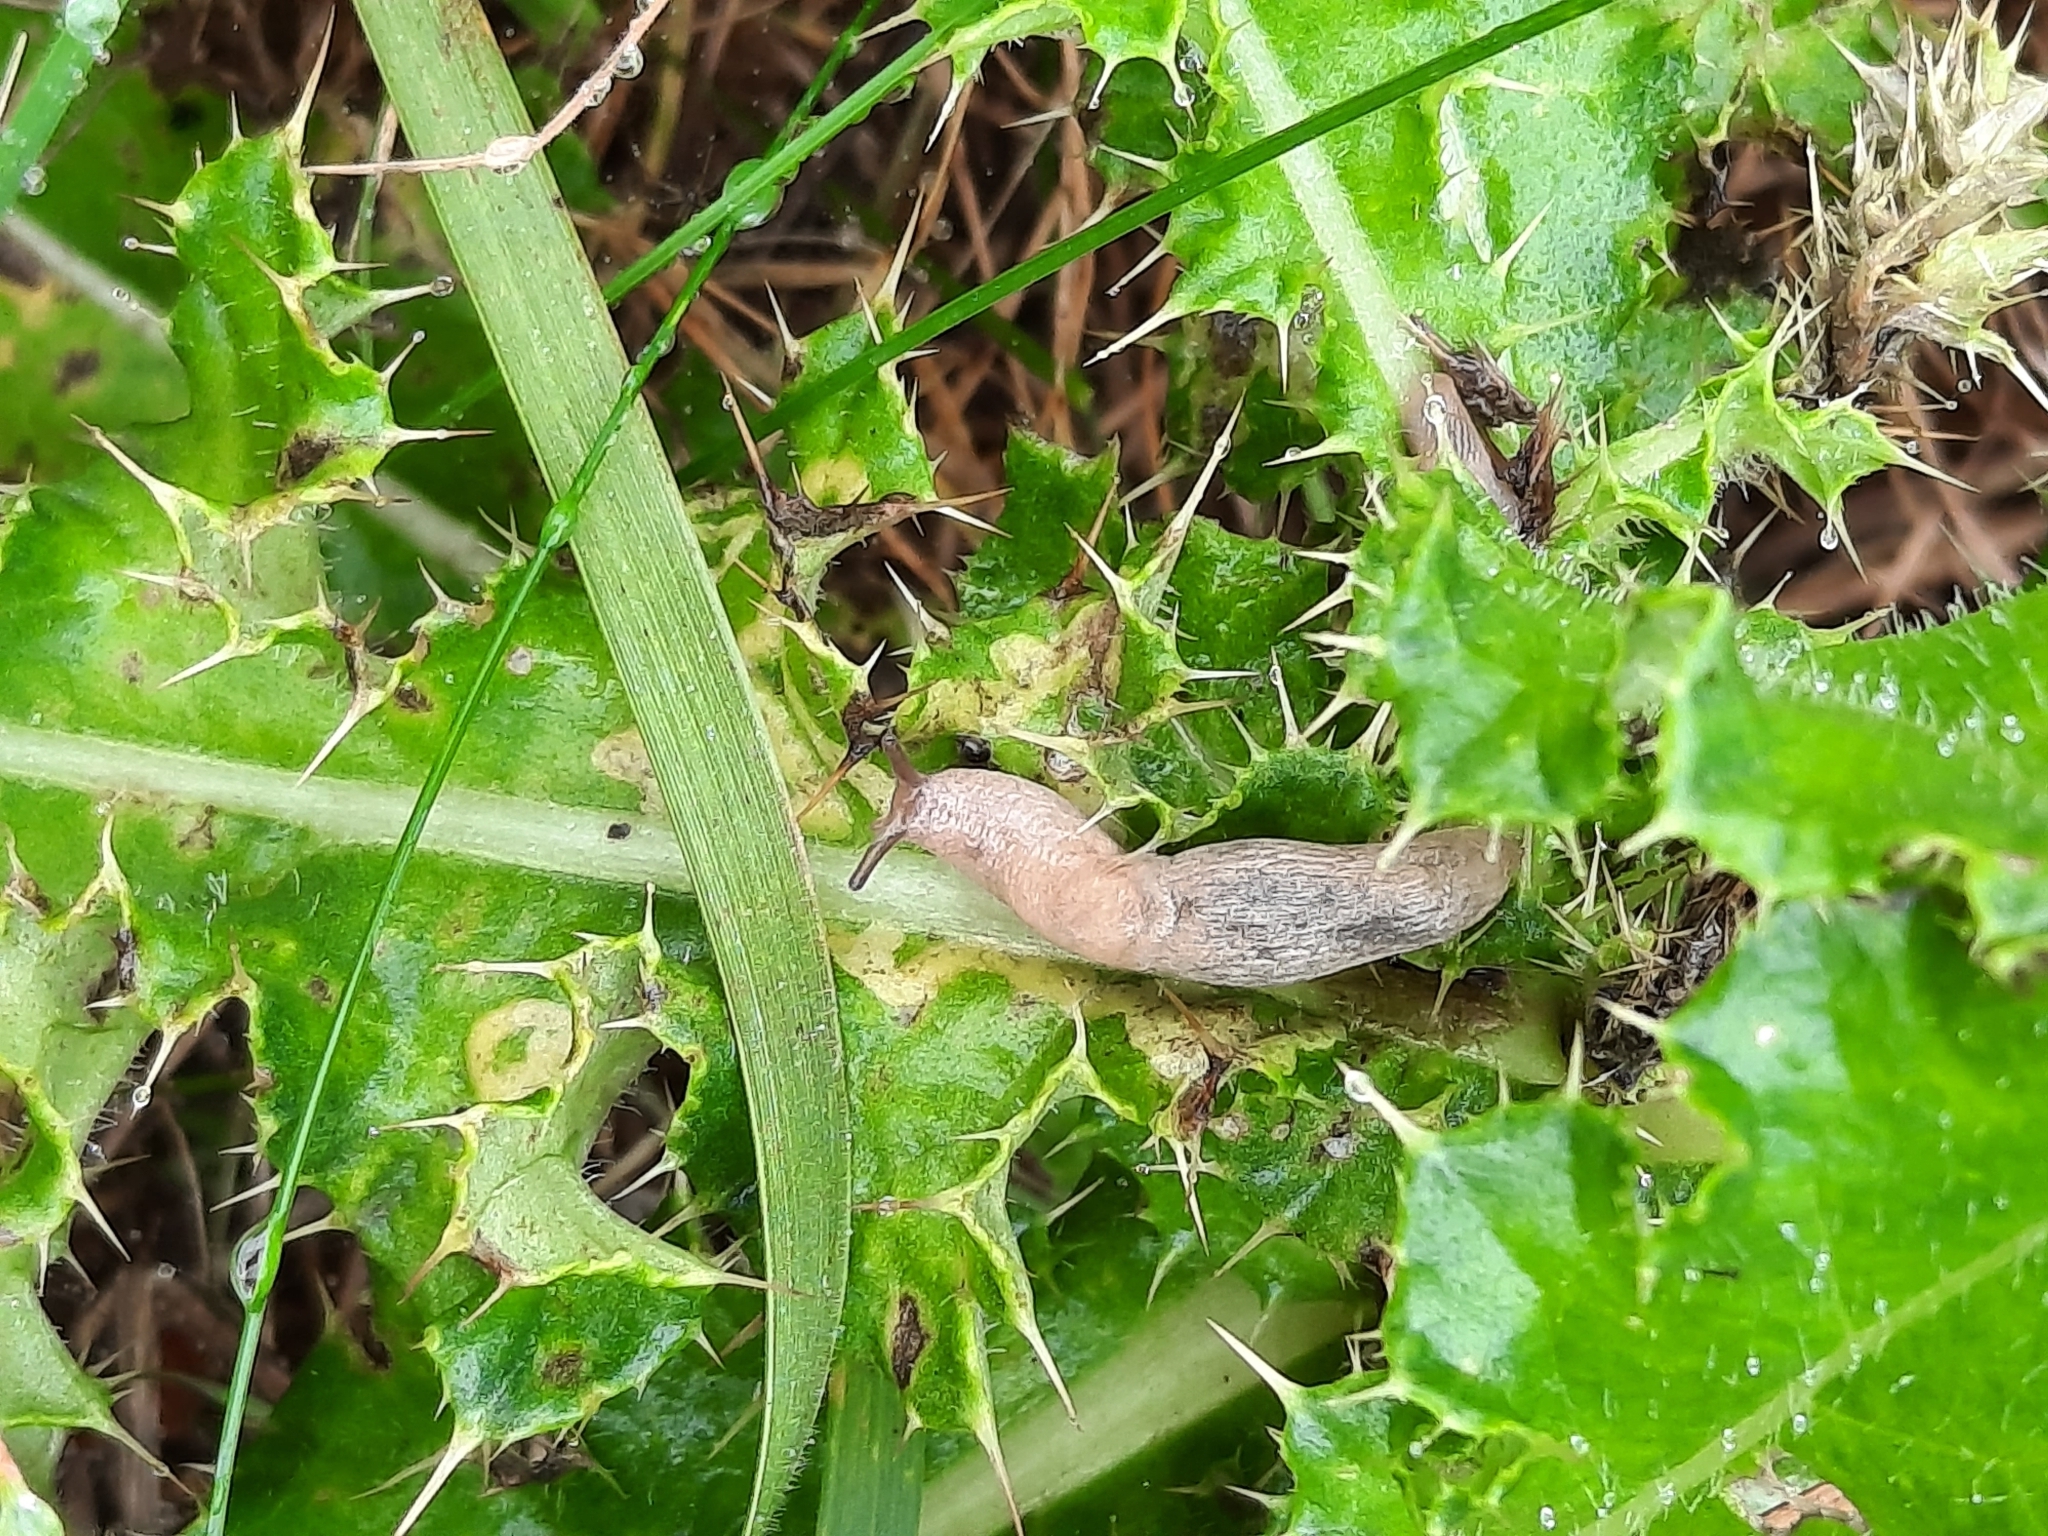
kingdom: Animalia
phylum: Mollusca
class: Gastropoda
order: Stylommatophora
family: Agriolimacidae
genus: Deroceras
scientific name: Deroceras reticulatum
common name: Gray field slug
